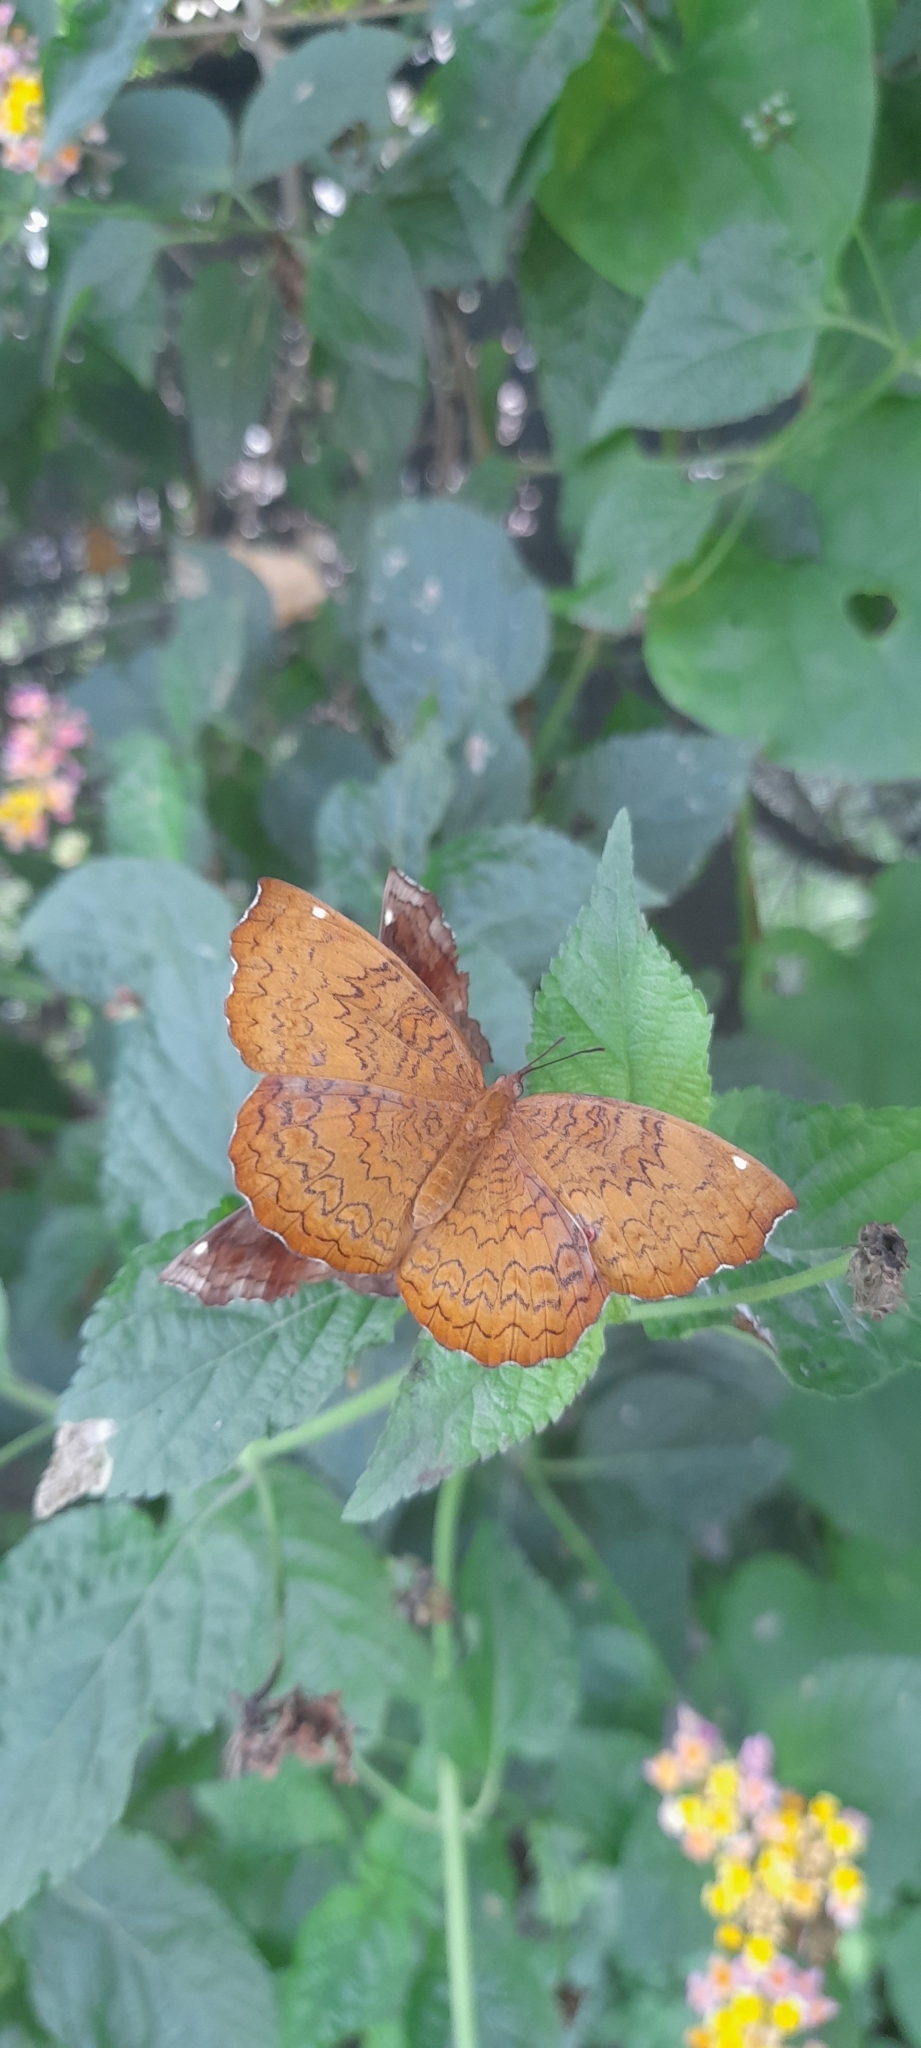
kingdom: Animalia
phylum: Arthropoda
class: Insecta
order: Lepidoptera
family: Nymphalidae
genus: Ariadne
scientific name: Ariadne merione
